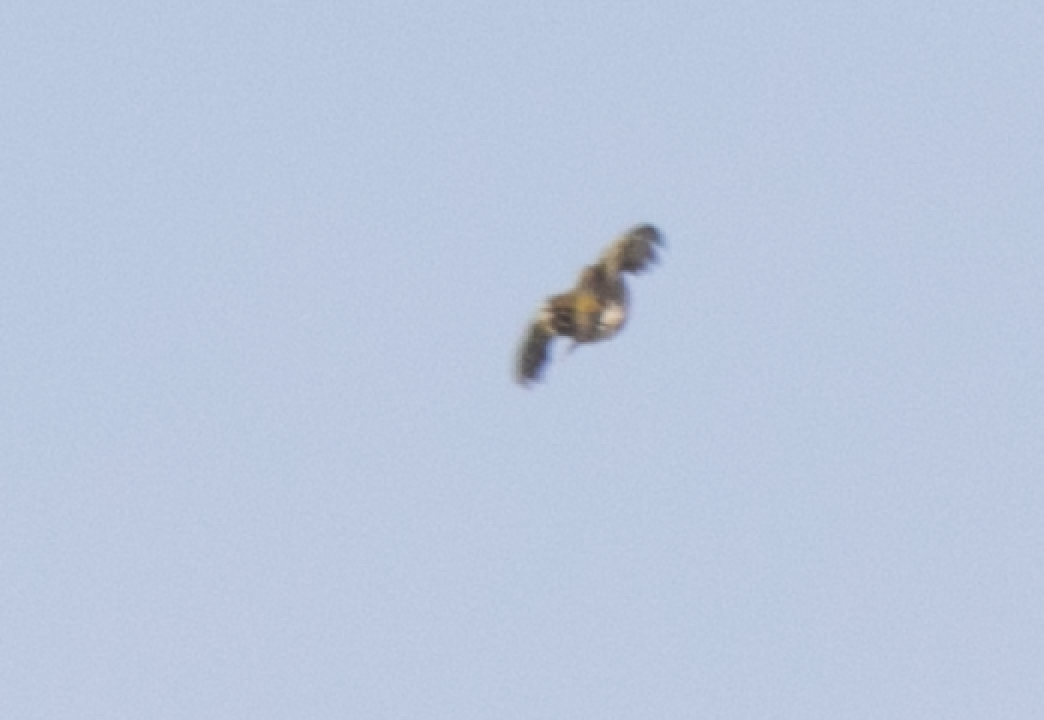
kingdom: Animalia
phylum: Chordata
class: Aves
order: Passeriformes
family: Fringillidae
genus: Fringilla
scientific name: Fringilla coelebs
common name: Common chaffinch
